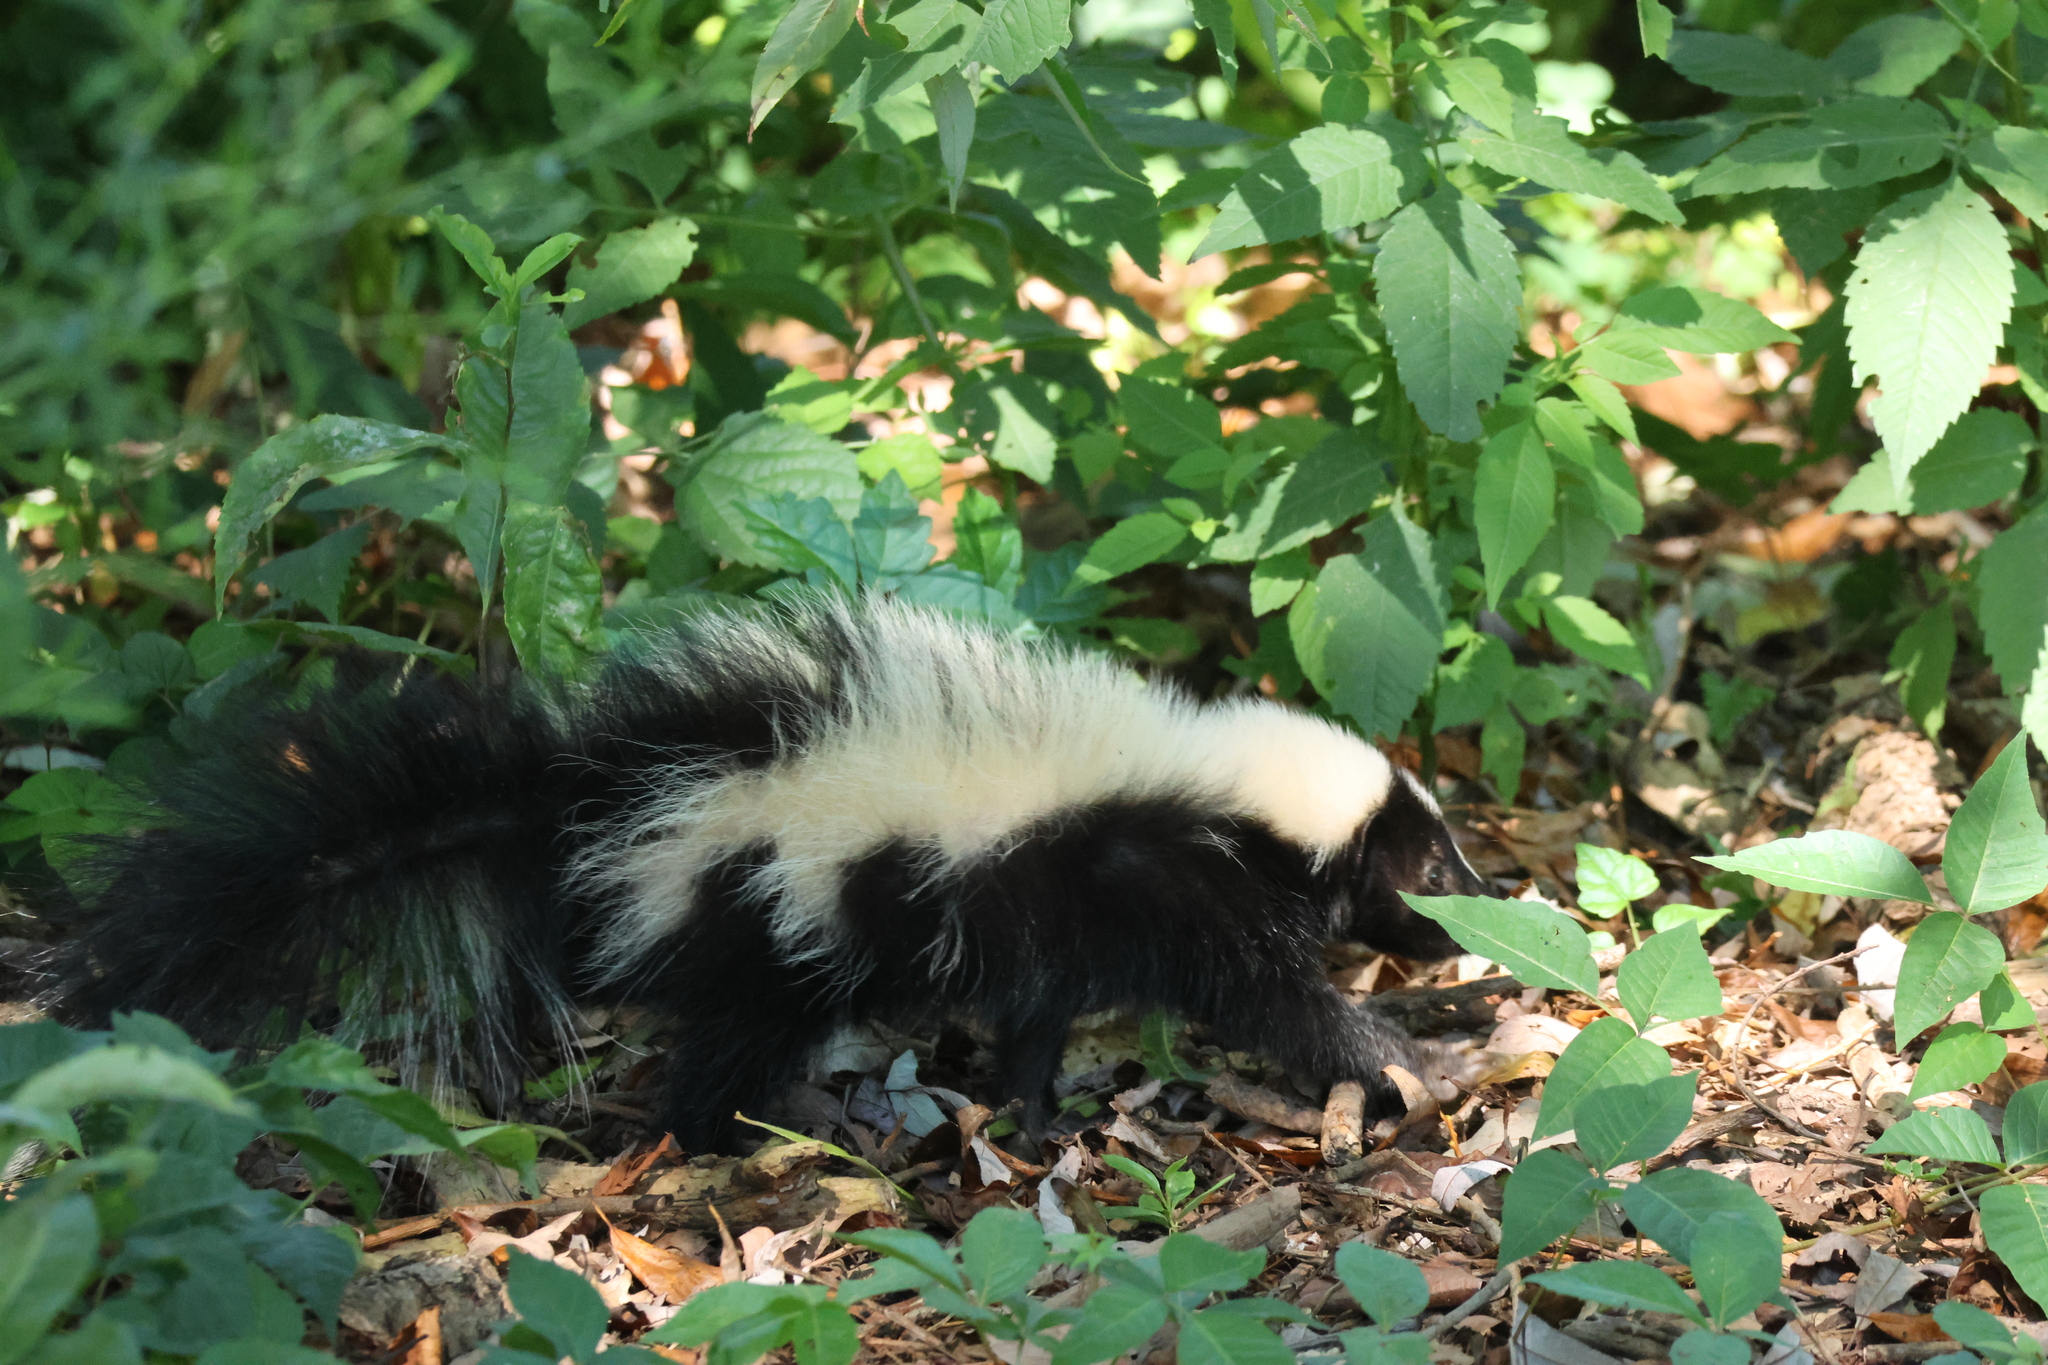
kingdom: Animalia
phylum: Chordata
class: Mammalia
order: Carnivora
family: Mephitidae
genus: Mephitis
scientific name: Mephitis mephitis
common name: Striped skunk
